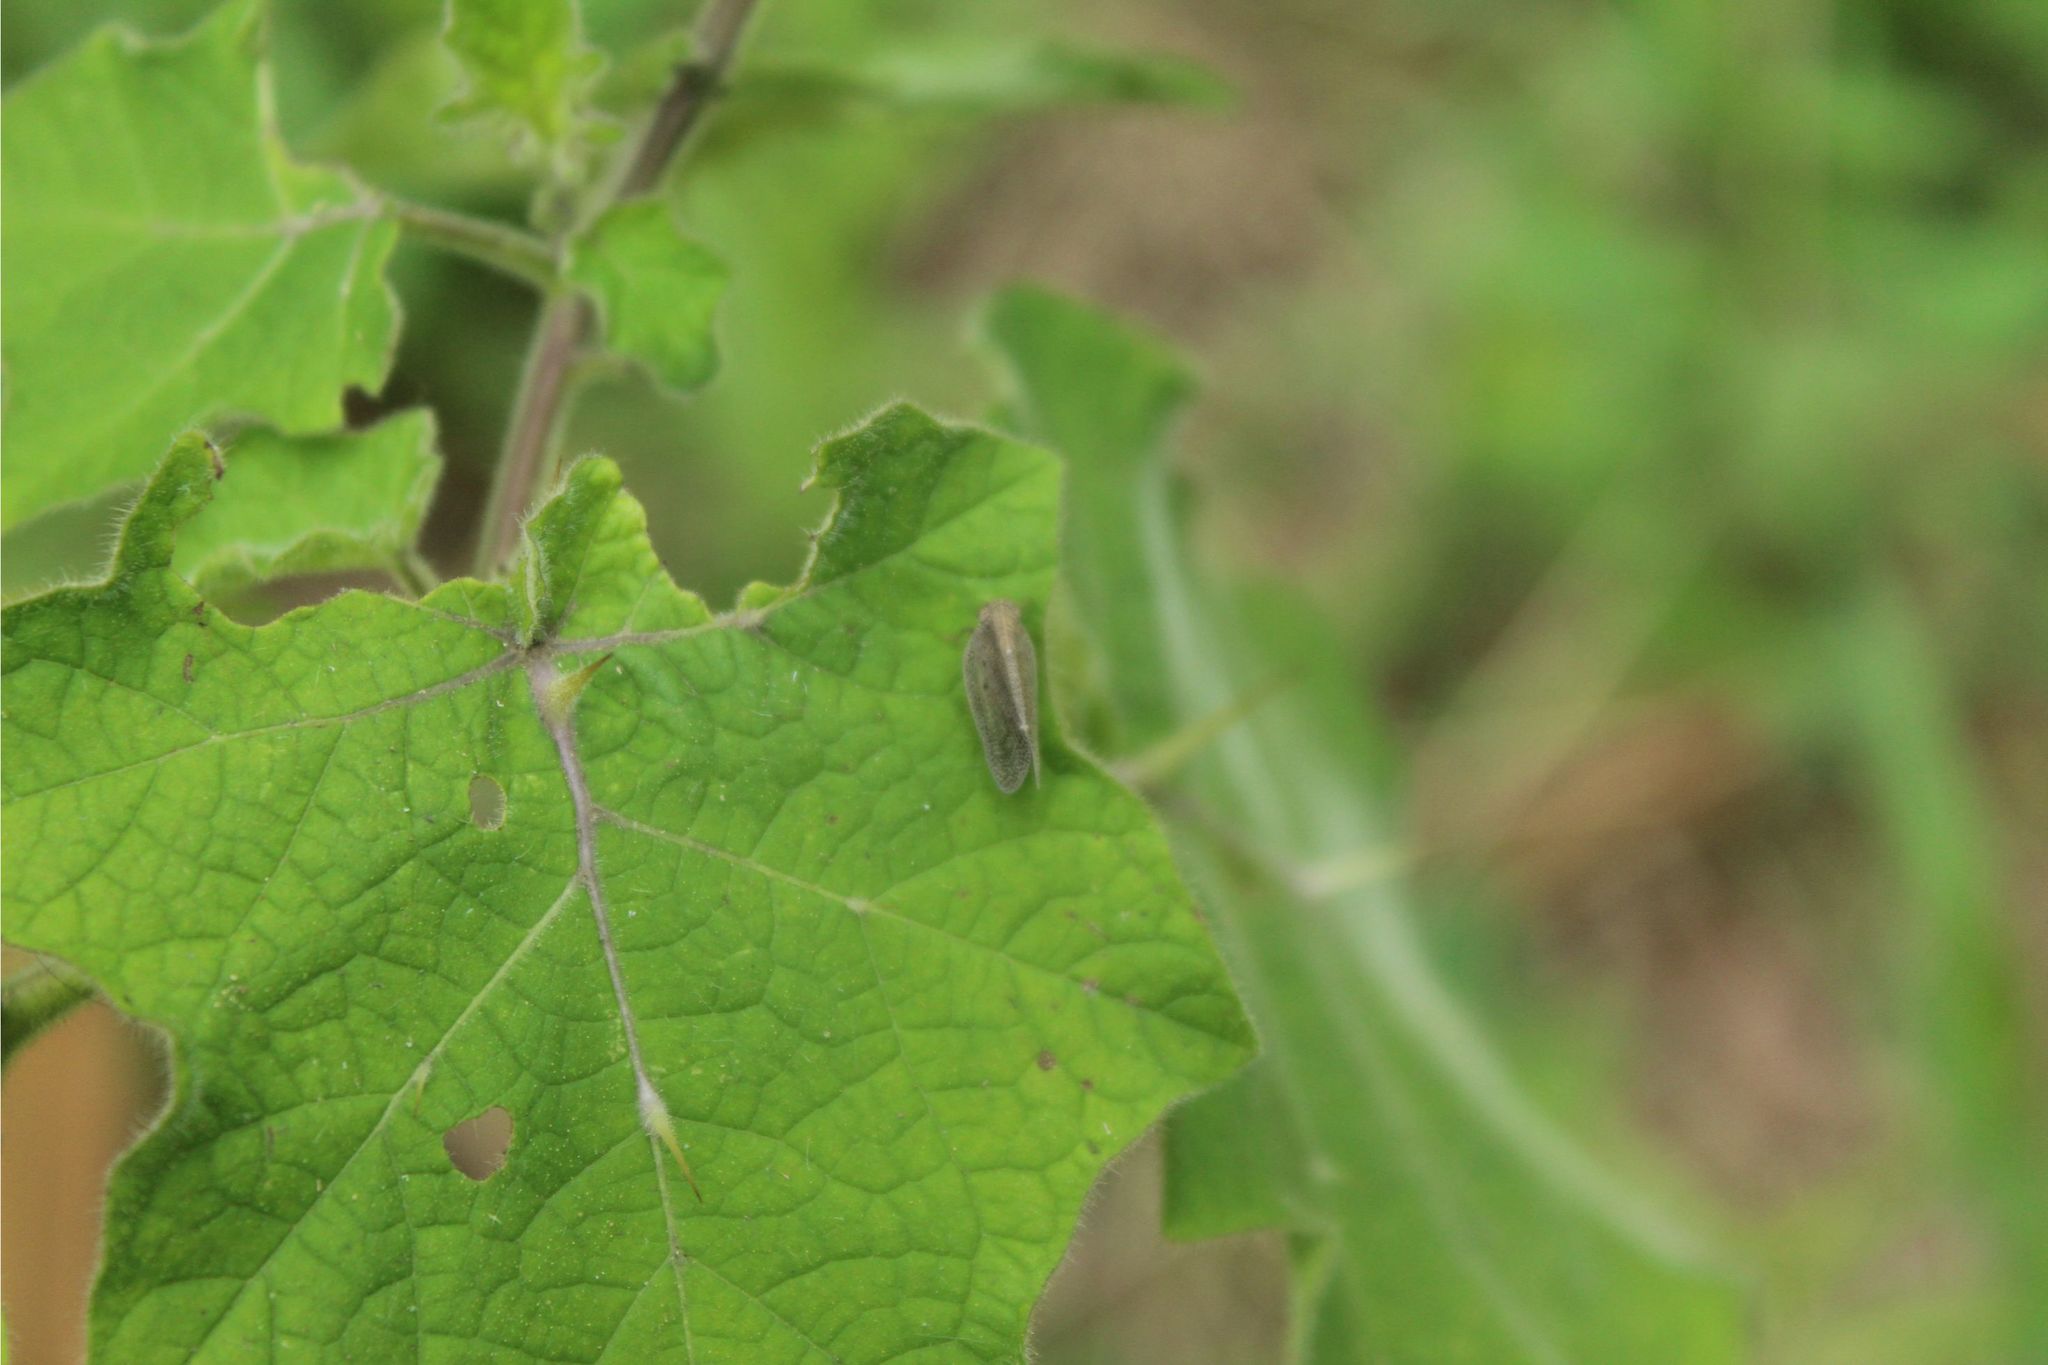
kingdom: Plantae
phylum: Tracheophyta
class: Magnoliopsida
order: Solanales
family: Solanaceae
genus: Solanum
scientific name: Solanum viarum
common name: Tropical soda apple
